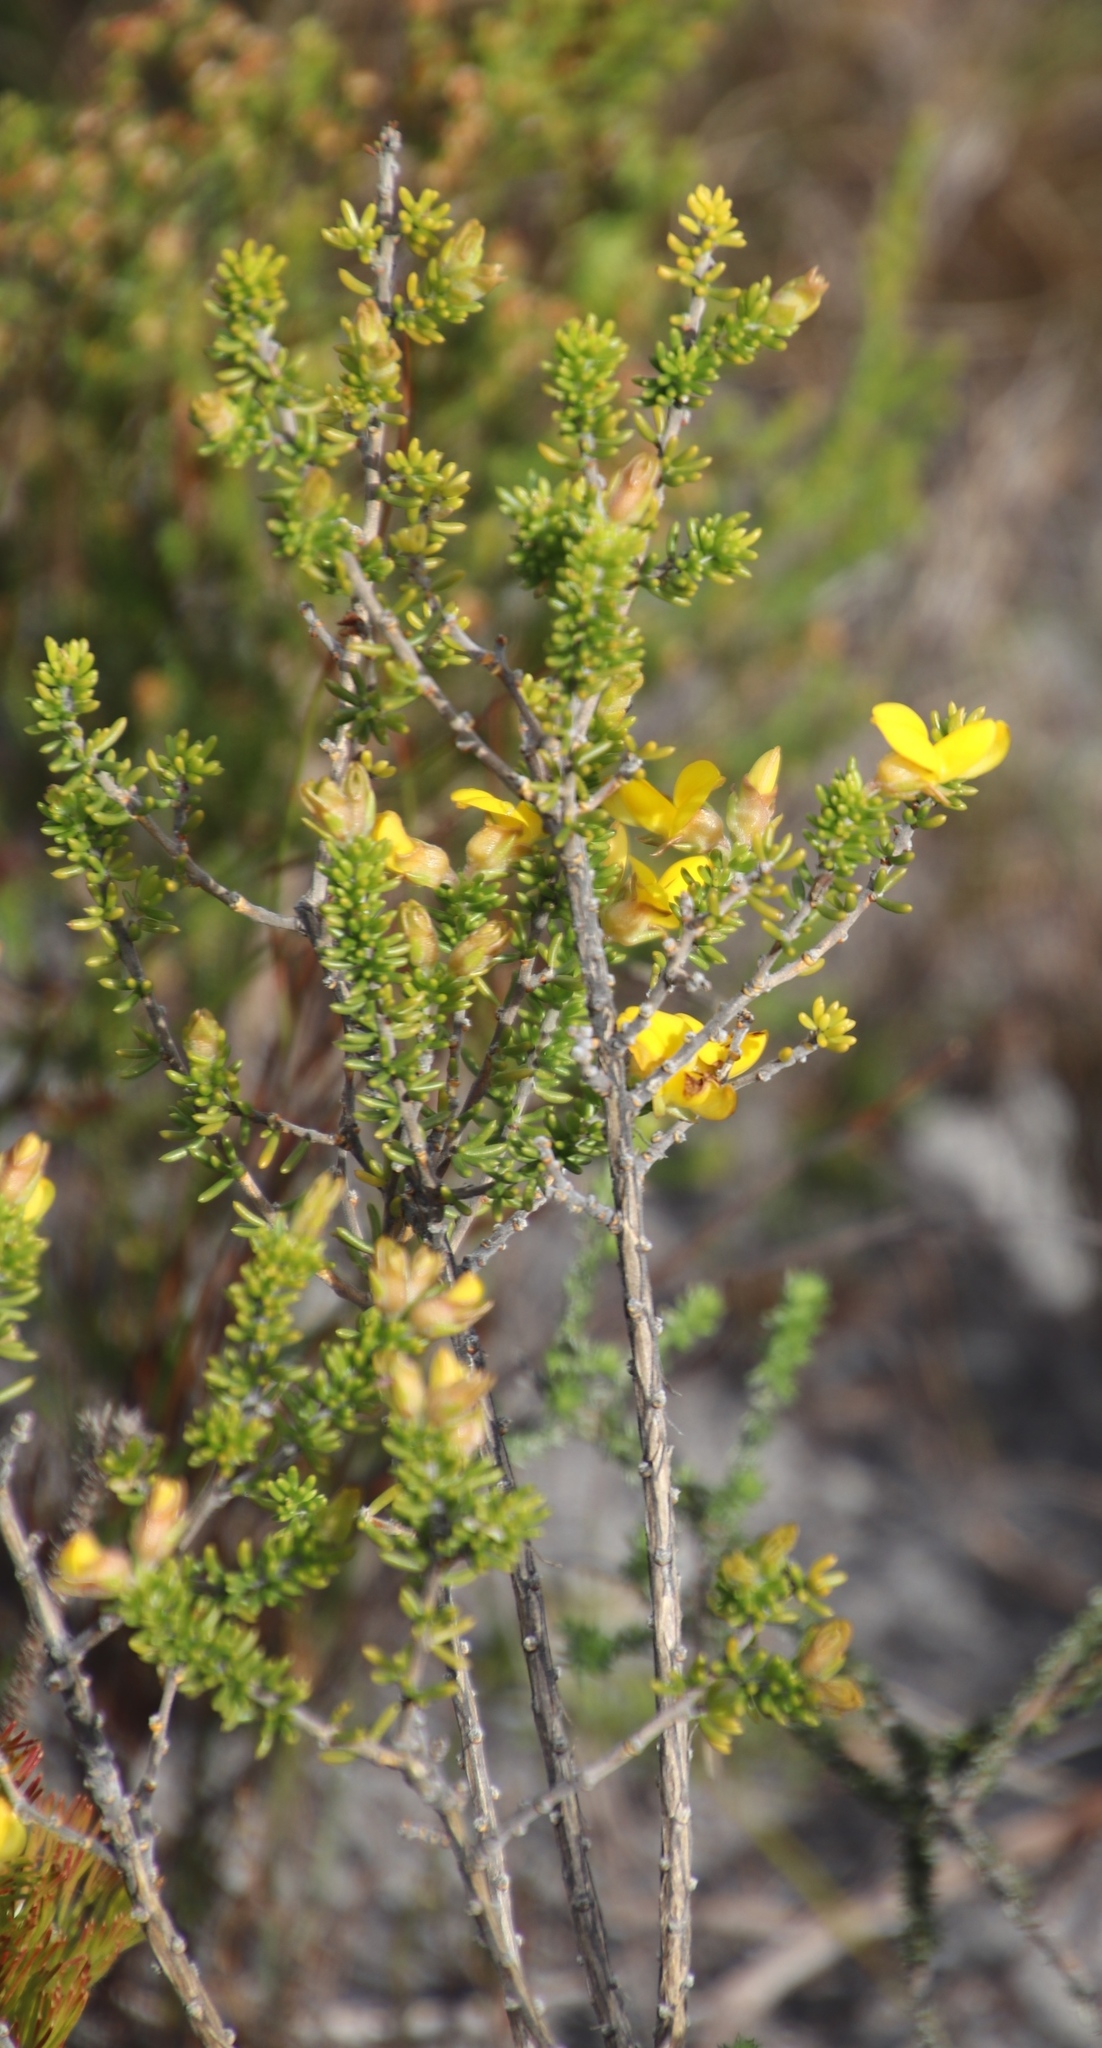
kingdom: Plantae
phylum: Tracheophyta
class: Magnoliopsida
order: Fabales
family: Fabaceae
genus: Aspalathus
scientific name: Aspalathus carnosa
